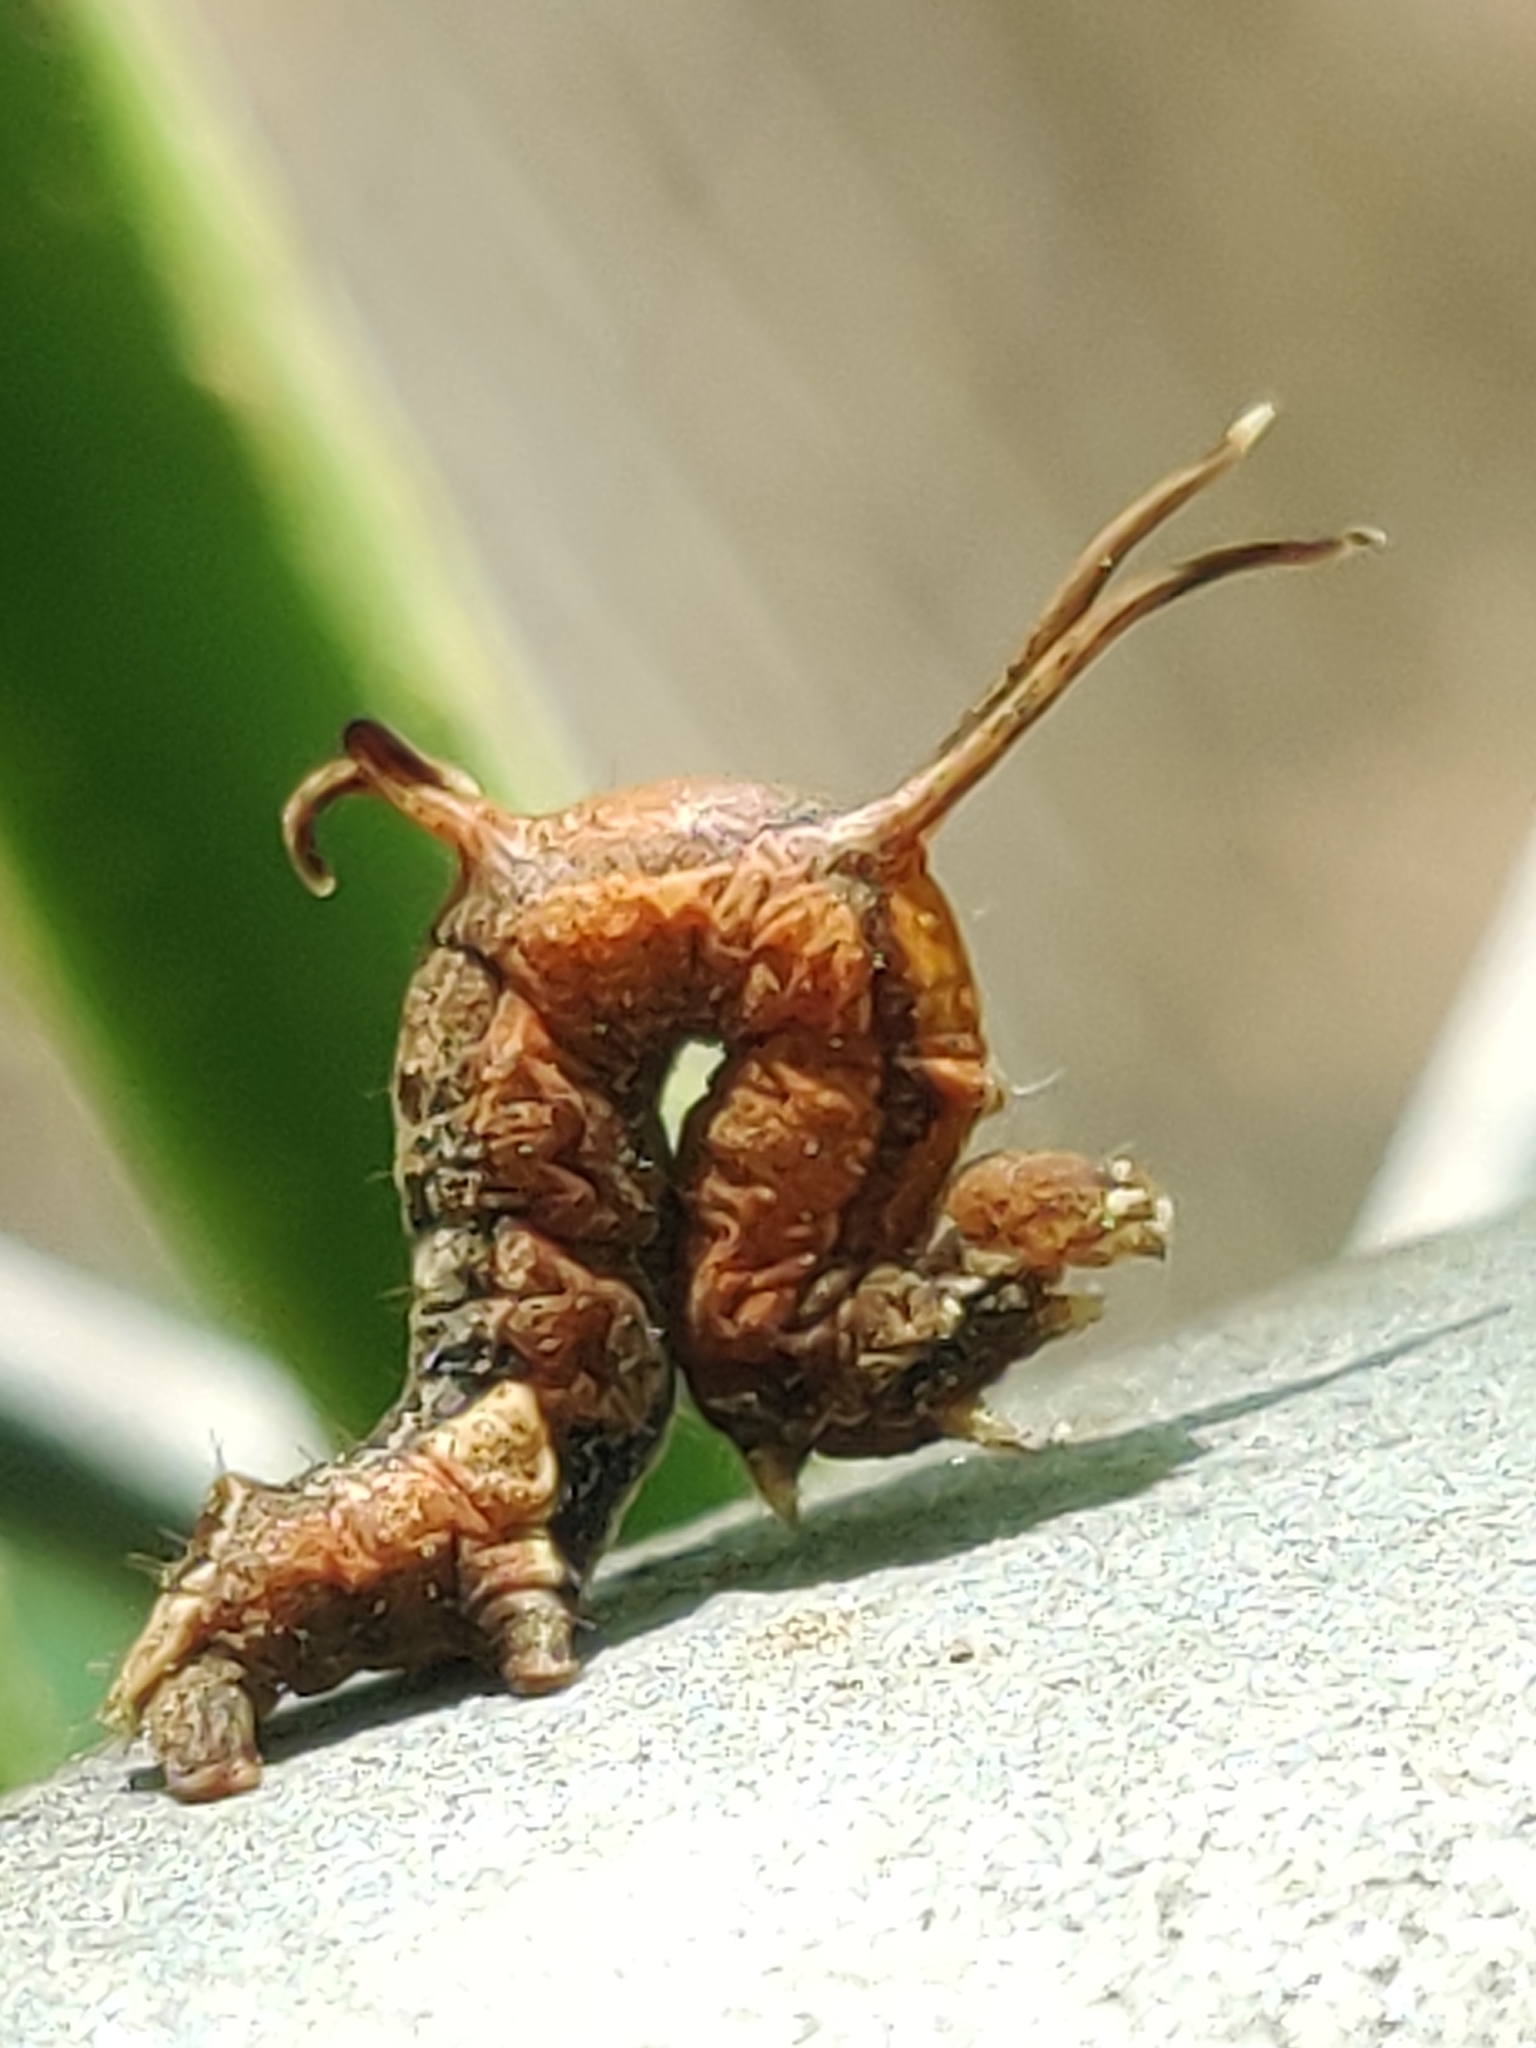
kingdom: Animalia
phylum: Arthropoda
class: Insecta
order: Lepidoptera
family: Geometridae
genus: Nematocampa
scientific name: Nematocampa resistaria
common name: Horned spanworm moth
